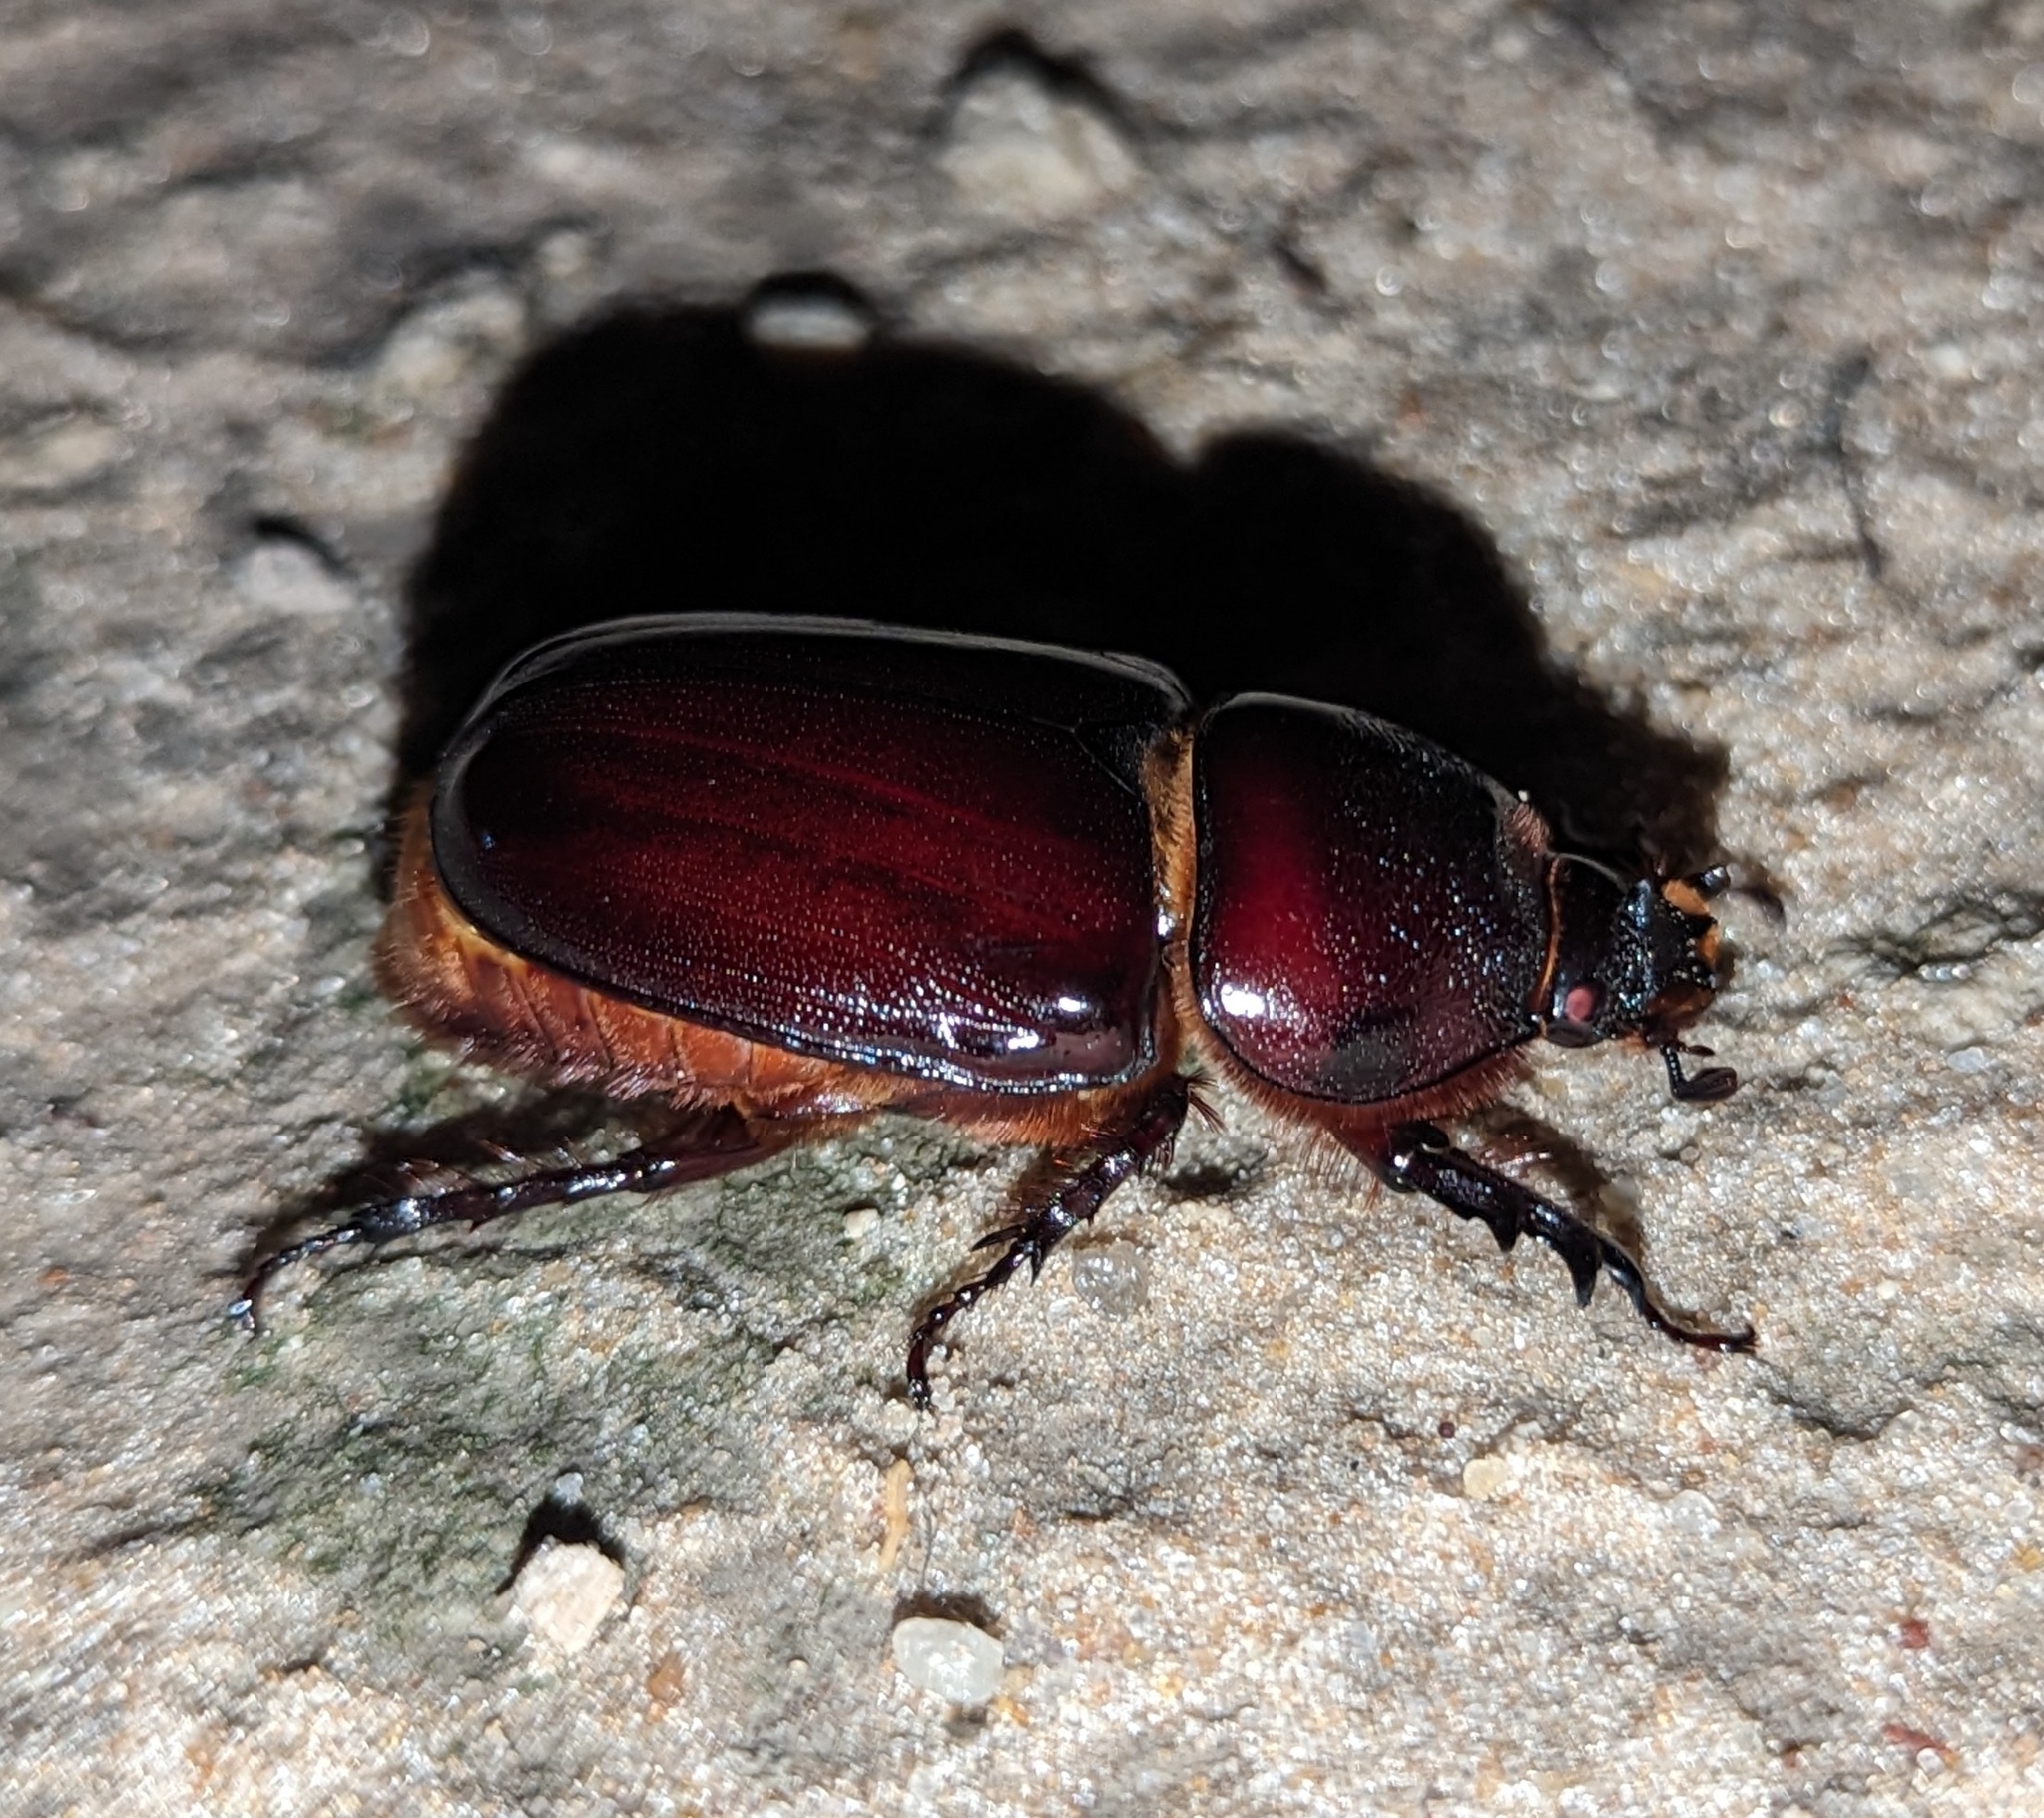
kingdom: Animalia
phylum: Arthropoda
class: Insecta
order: Coleoptera
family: Scarabaeidae
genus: Oryctes
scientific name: Oryctes boas
